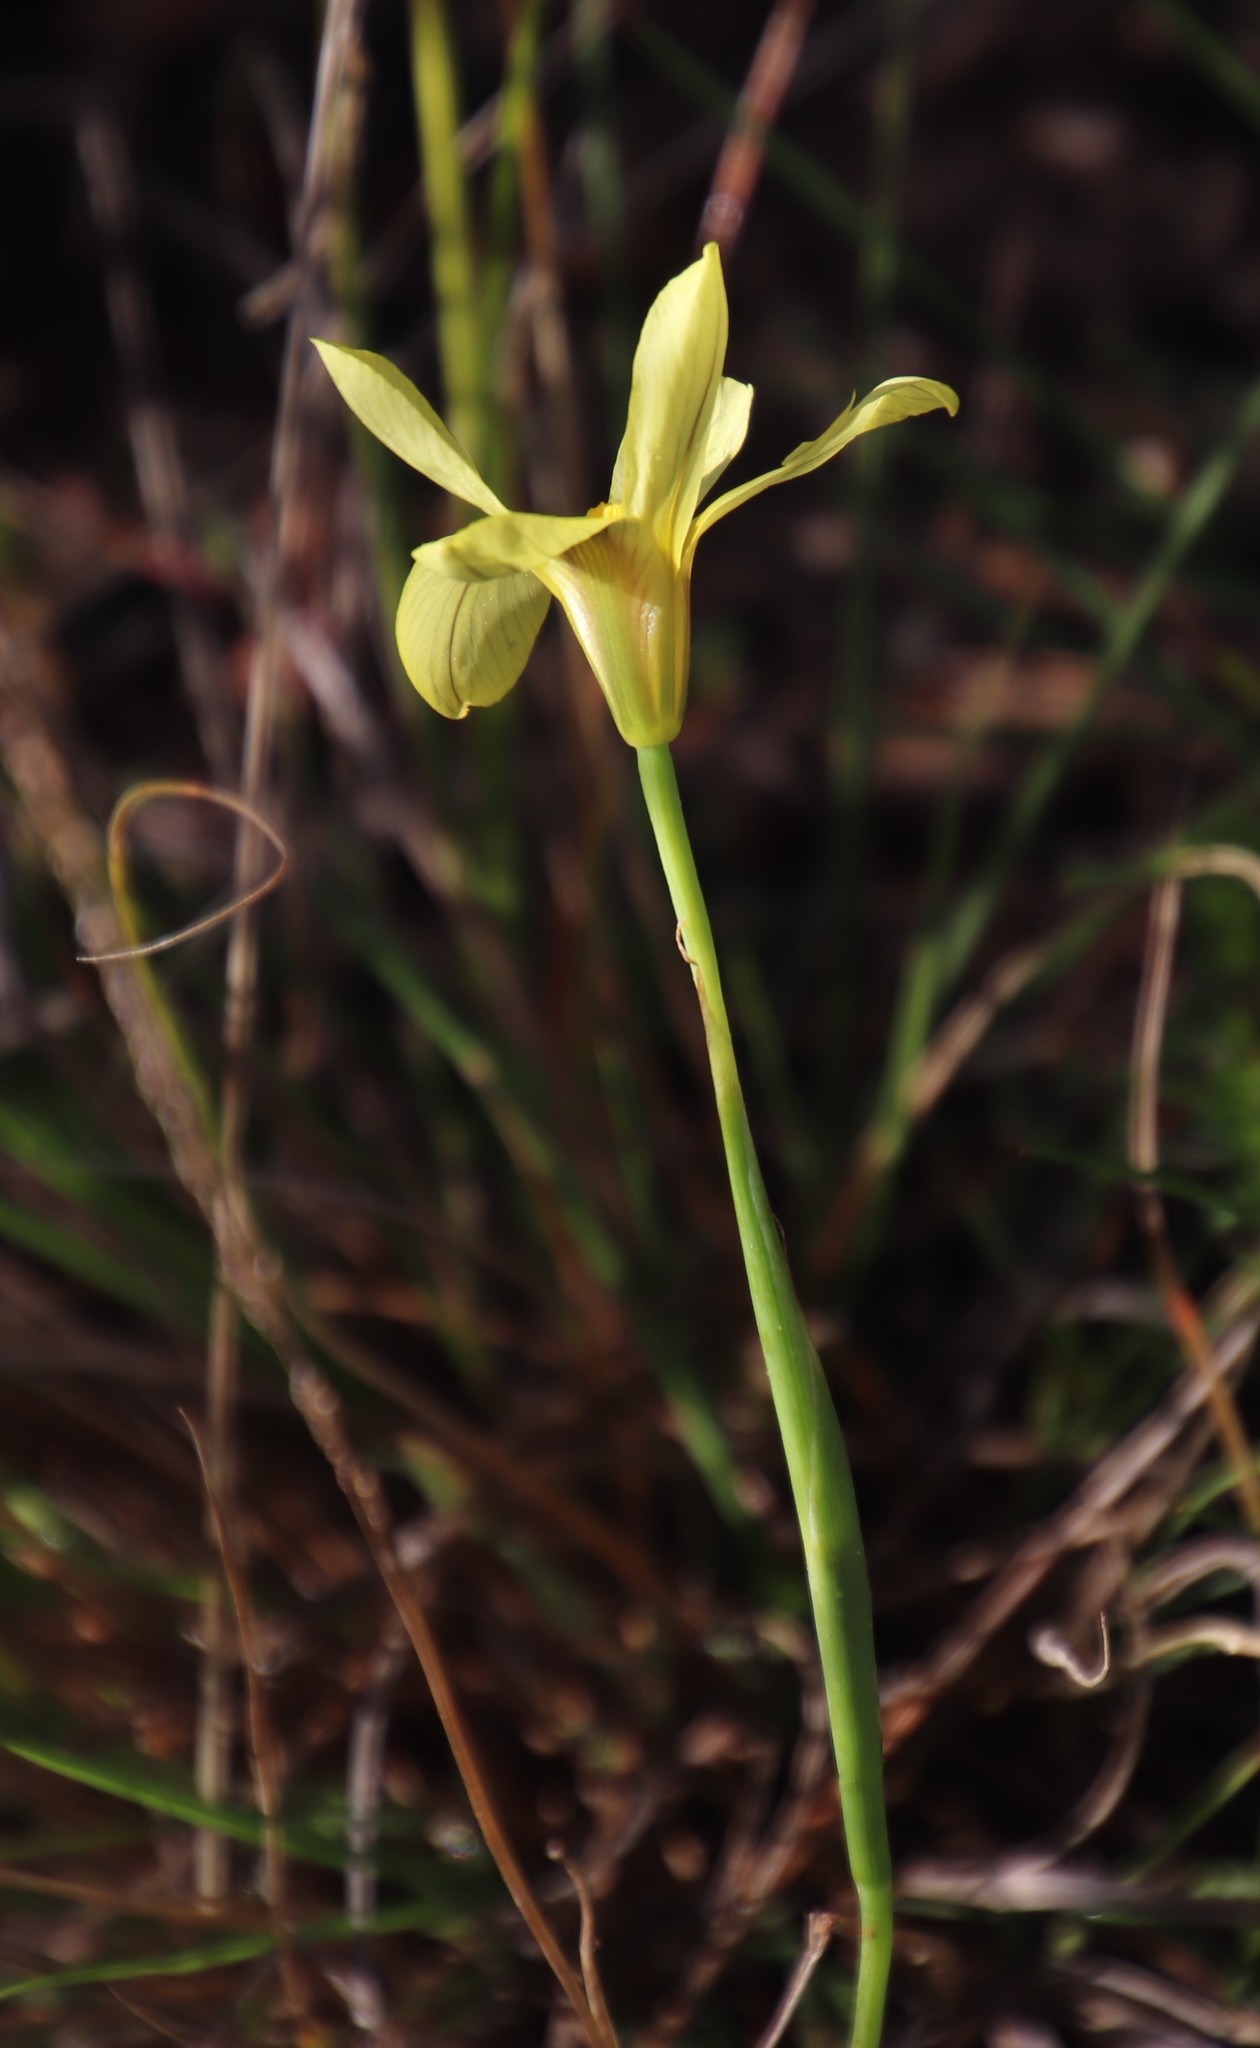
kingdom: Plantae
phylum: Tracheophyta
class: Liliopsida
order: Asparagales
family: Iridaceae
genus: Moraea
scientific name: Moraea collina
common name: Cape-tulip
